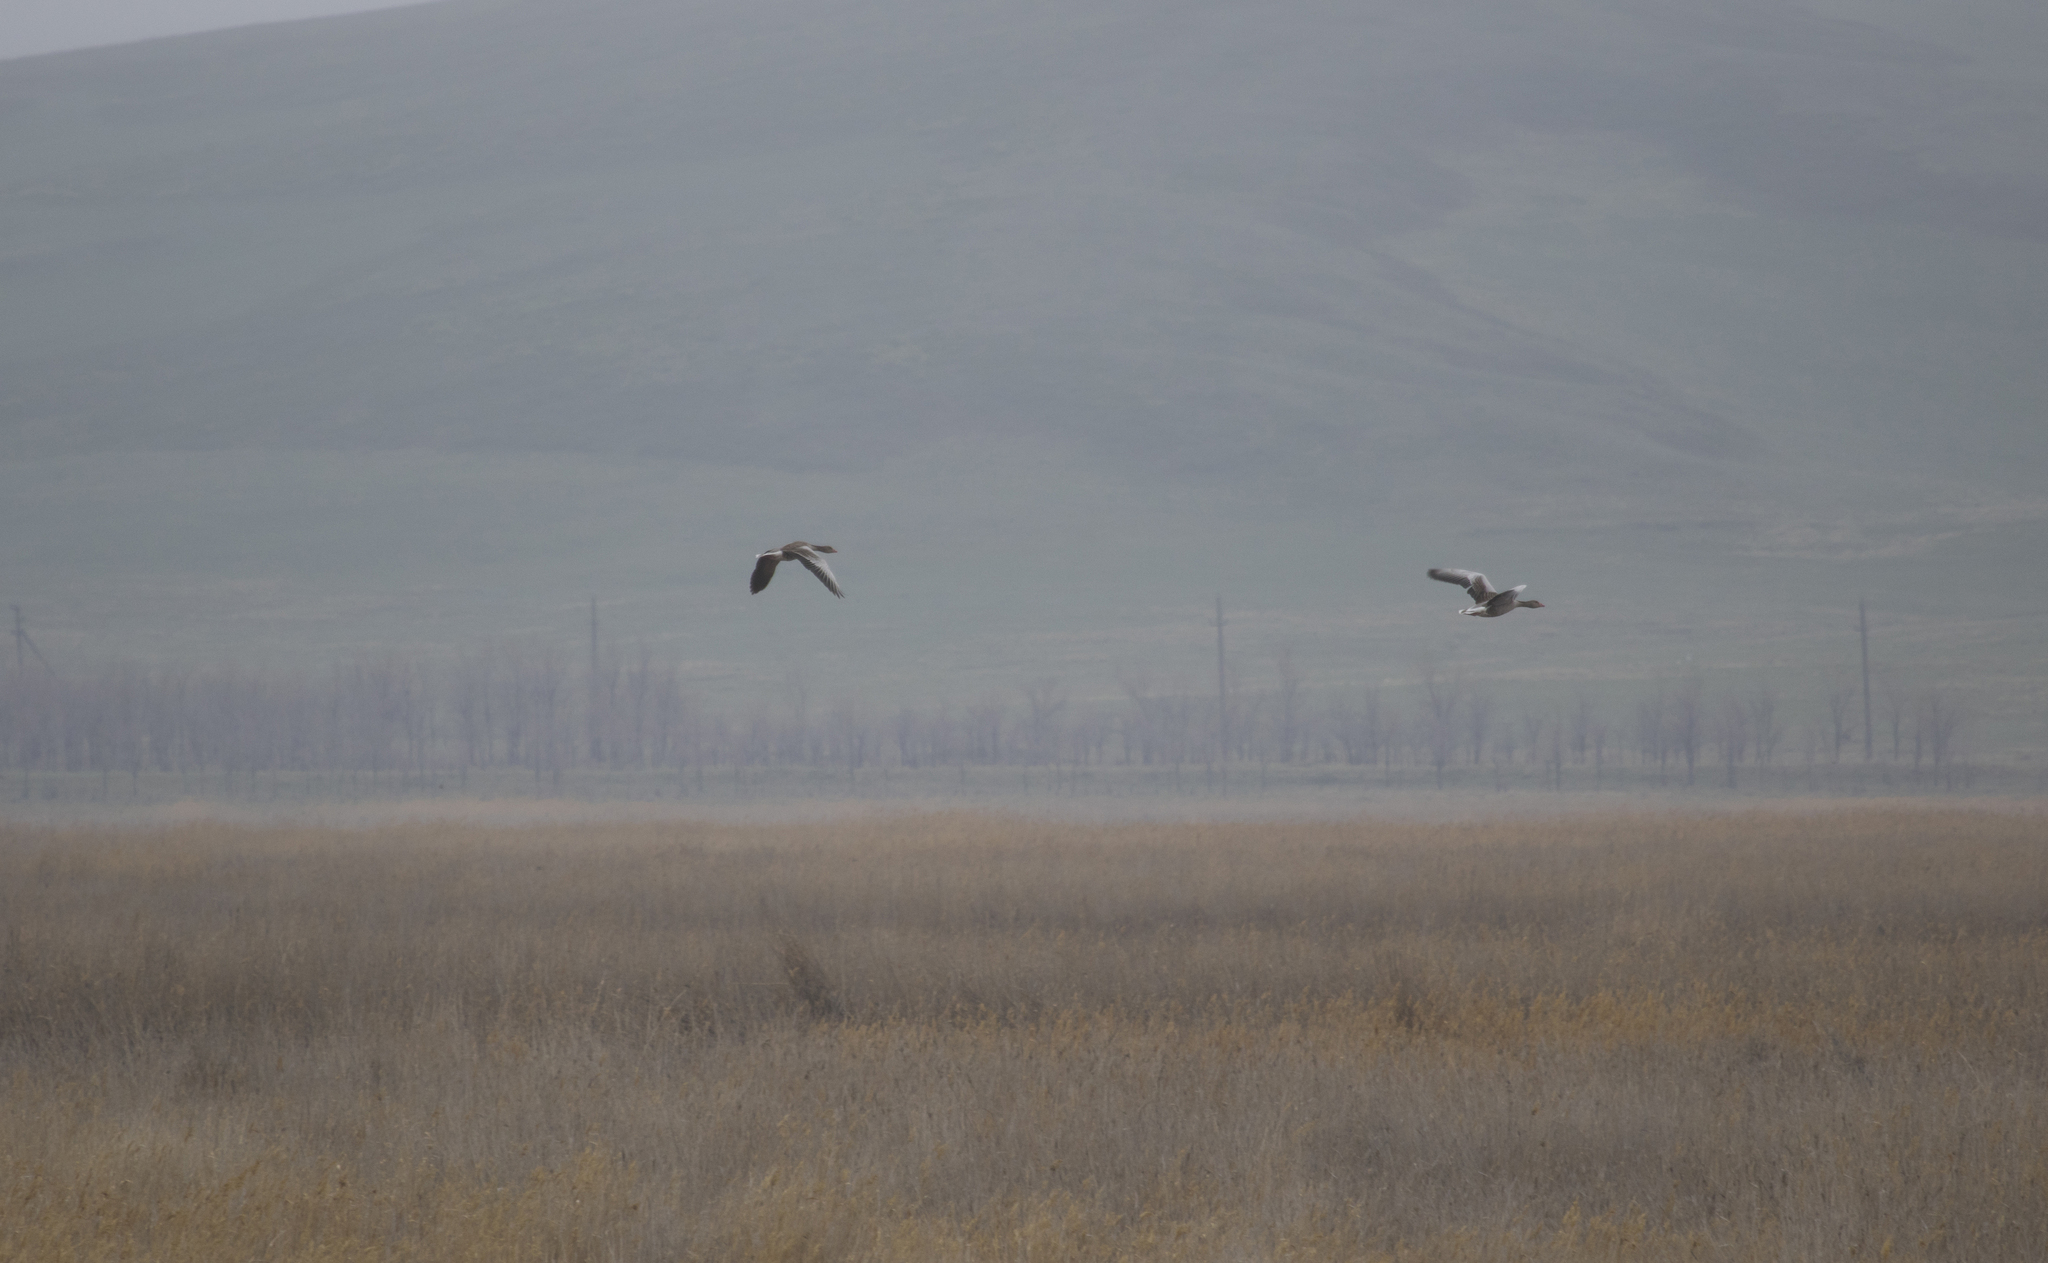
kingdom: Animalia
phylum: Chordata
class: Aves
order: Anseriformes
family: Anatidae
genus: Anser
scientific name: Anser anser
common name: Greylag goose
